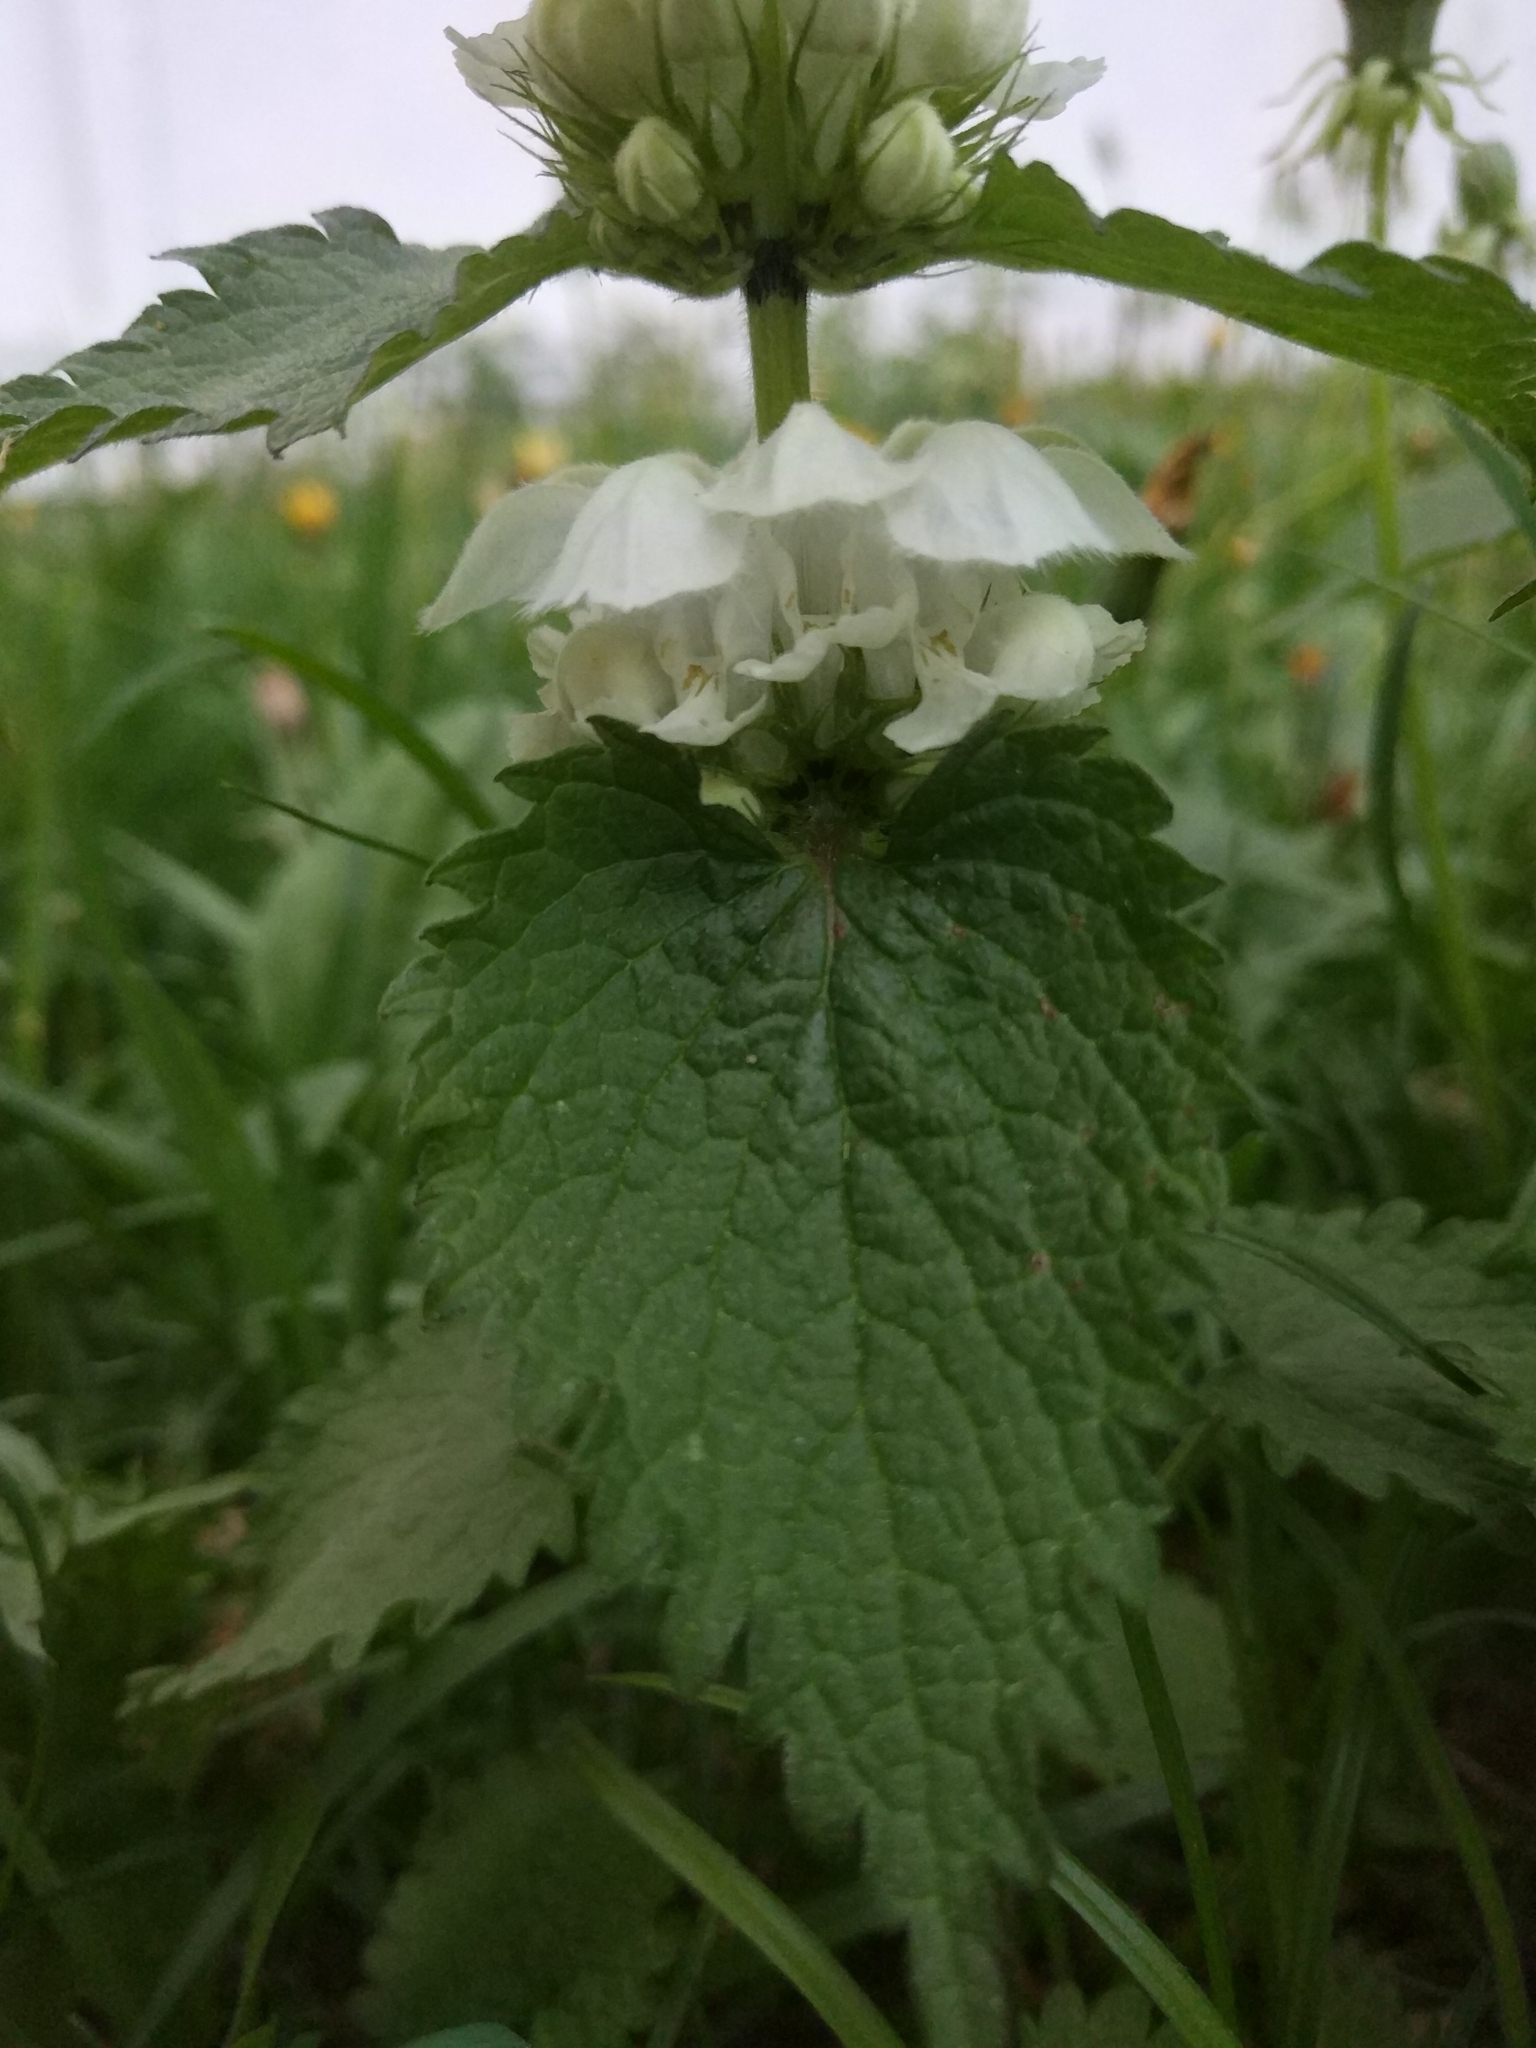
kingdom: Plantae
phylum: Tracheophyta
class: Magnoliopsida
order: Lamiales
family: Lamiaceae
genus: Lamium
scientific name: Lamium album
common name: White dead-nettle
